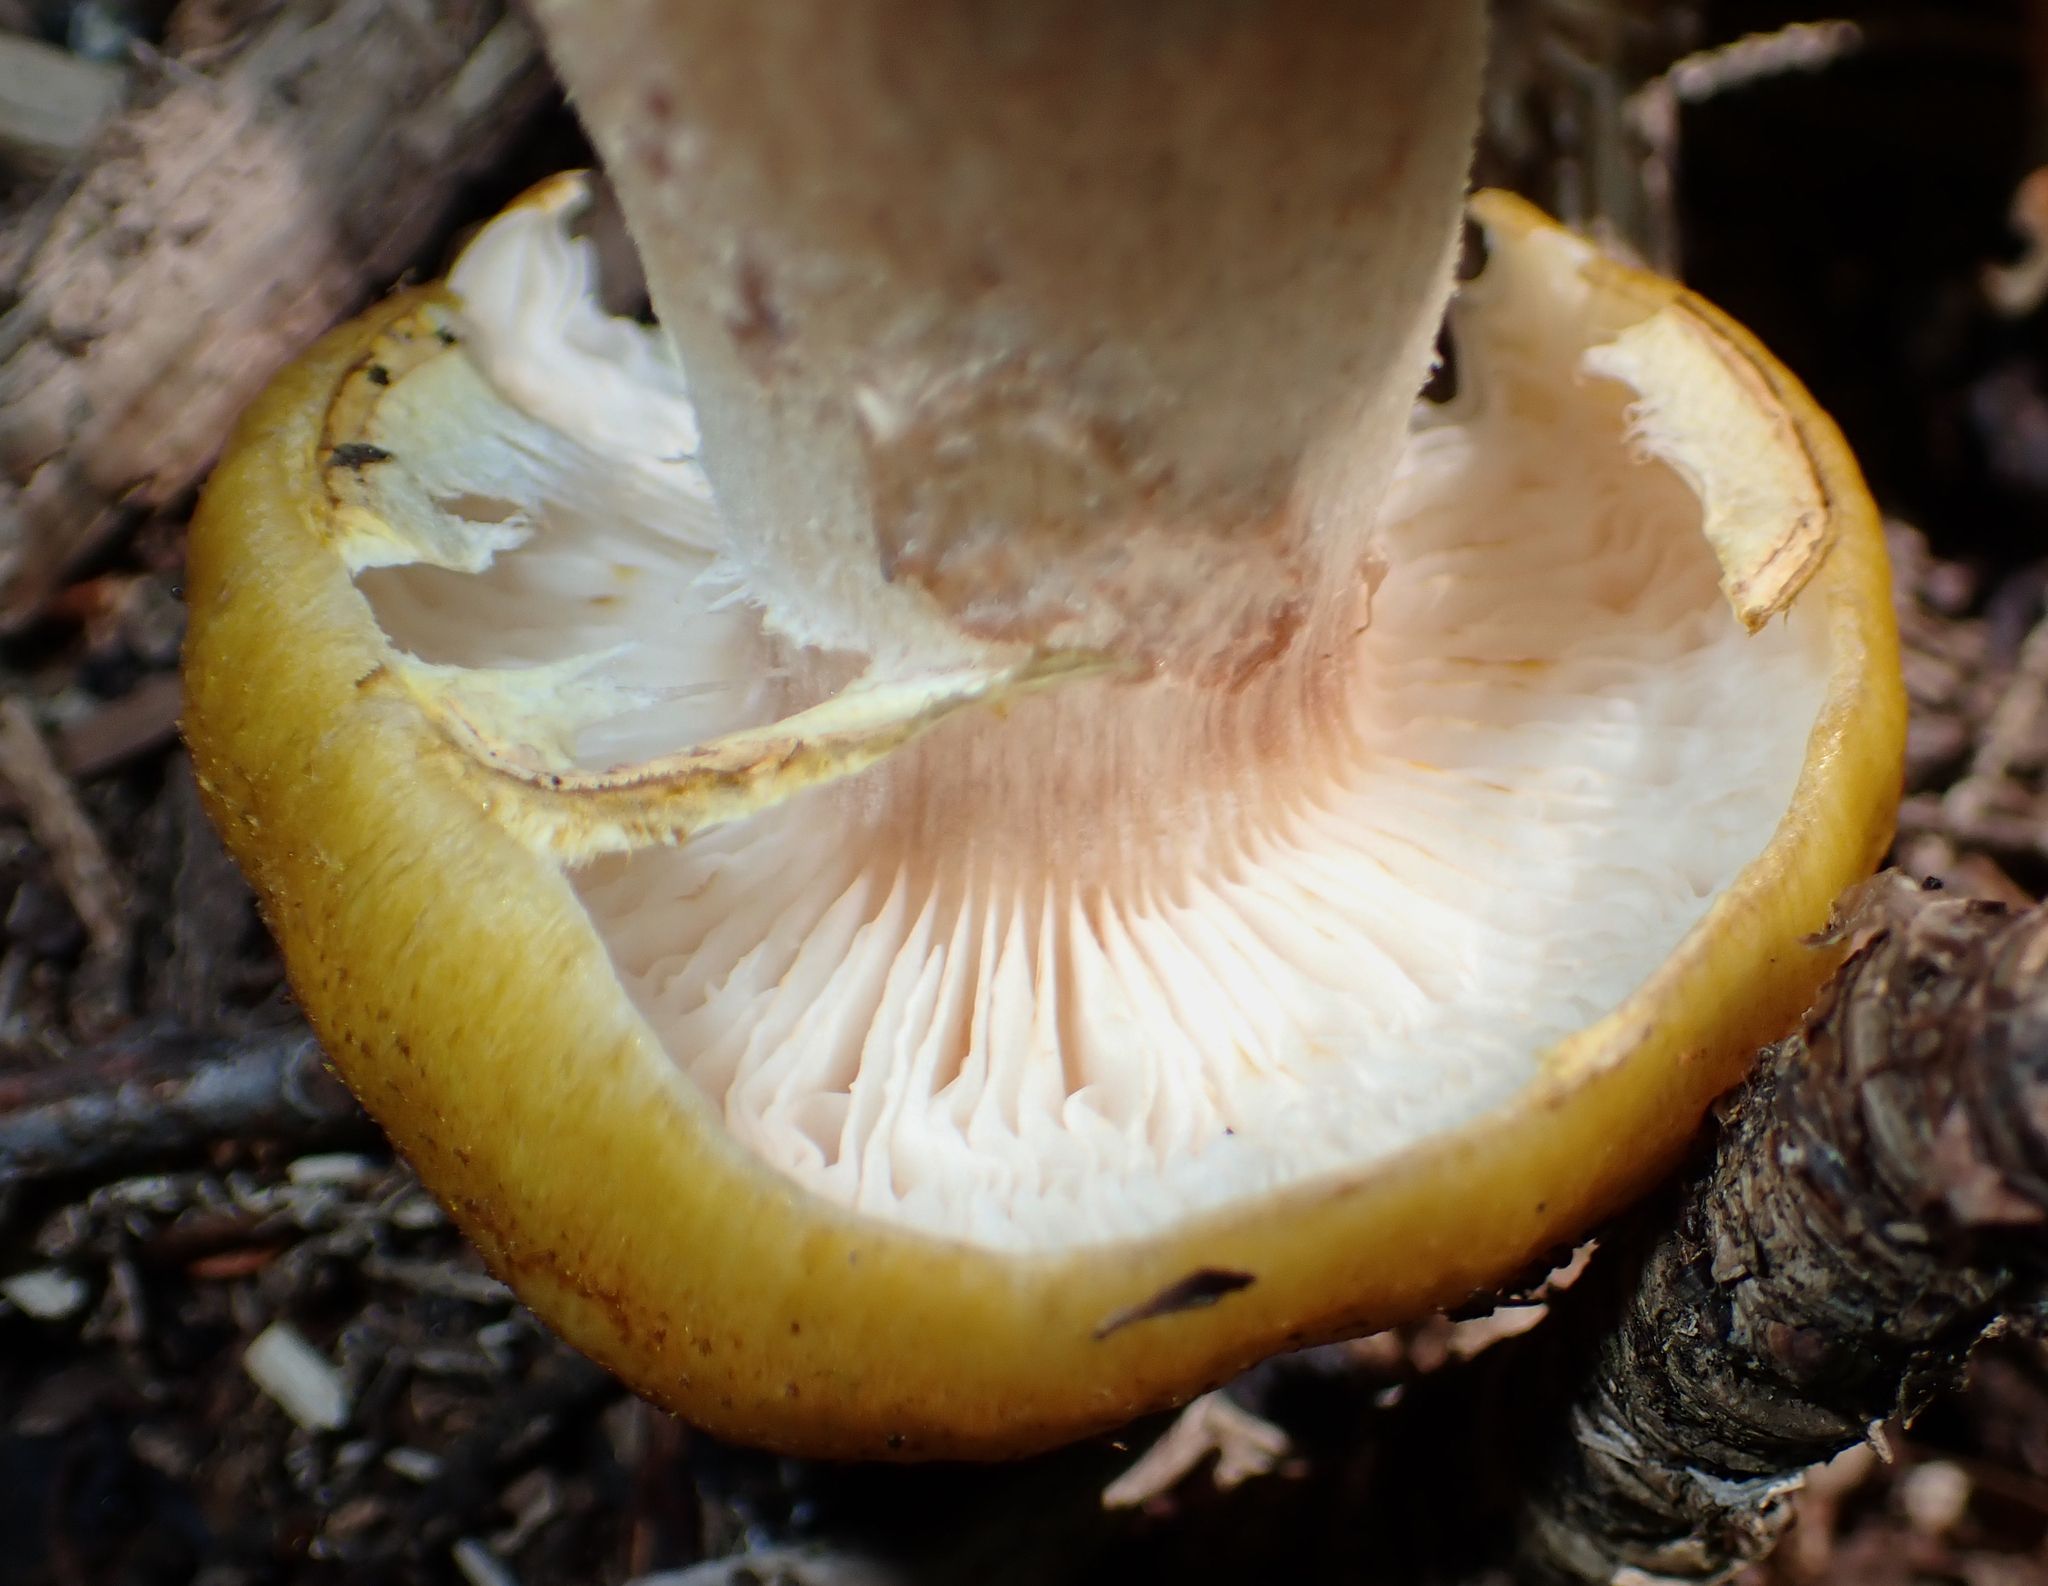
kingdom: Fungi
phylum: Basidiomycota
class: Agaricomycetes
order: Agaricales
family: Physalacriaceae
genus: Armillaria
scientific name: Armillaria mellea
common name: Honey fungus
